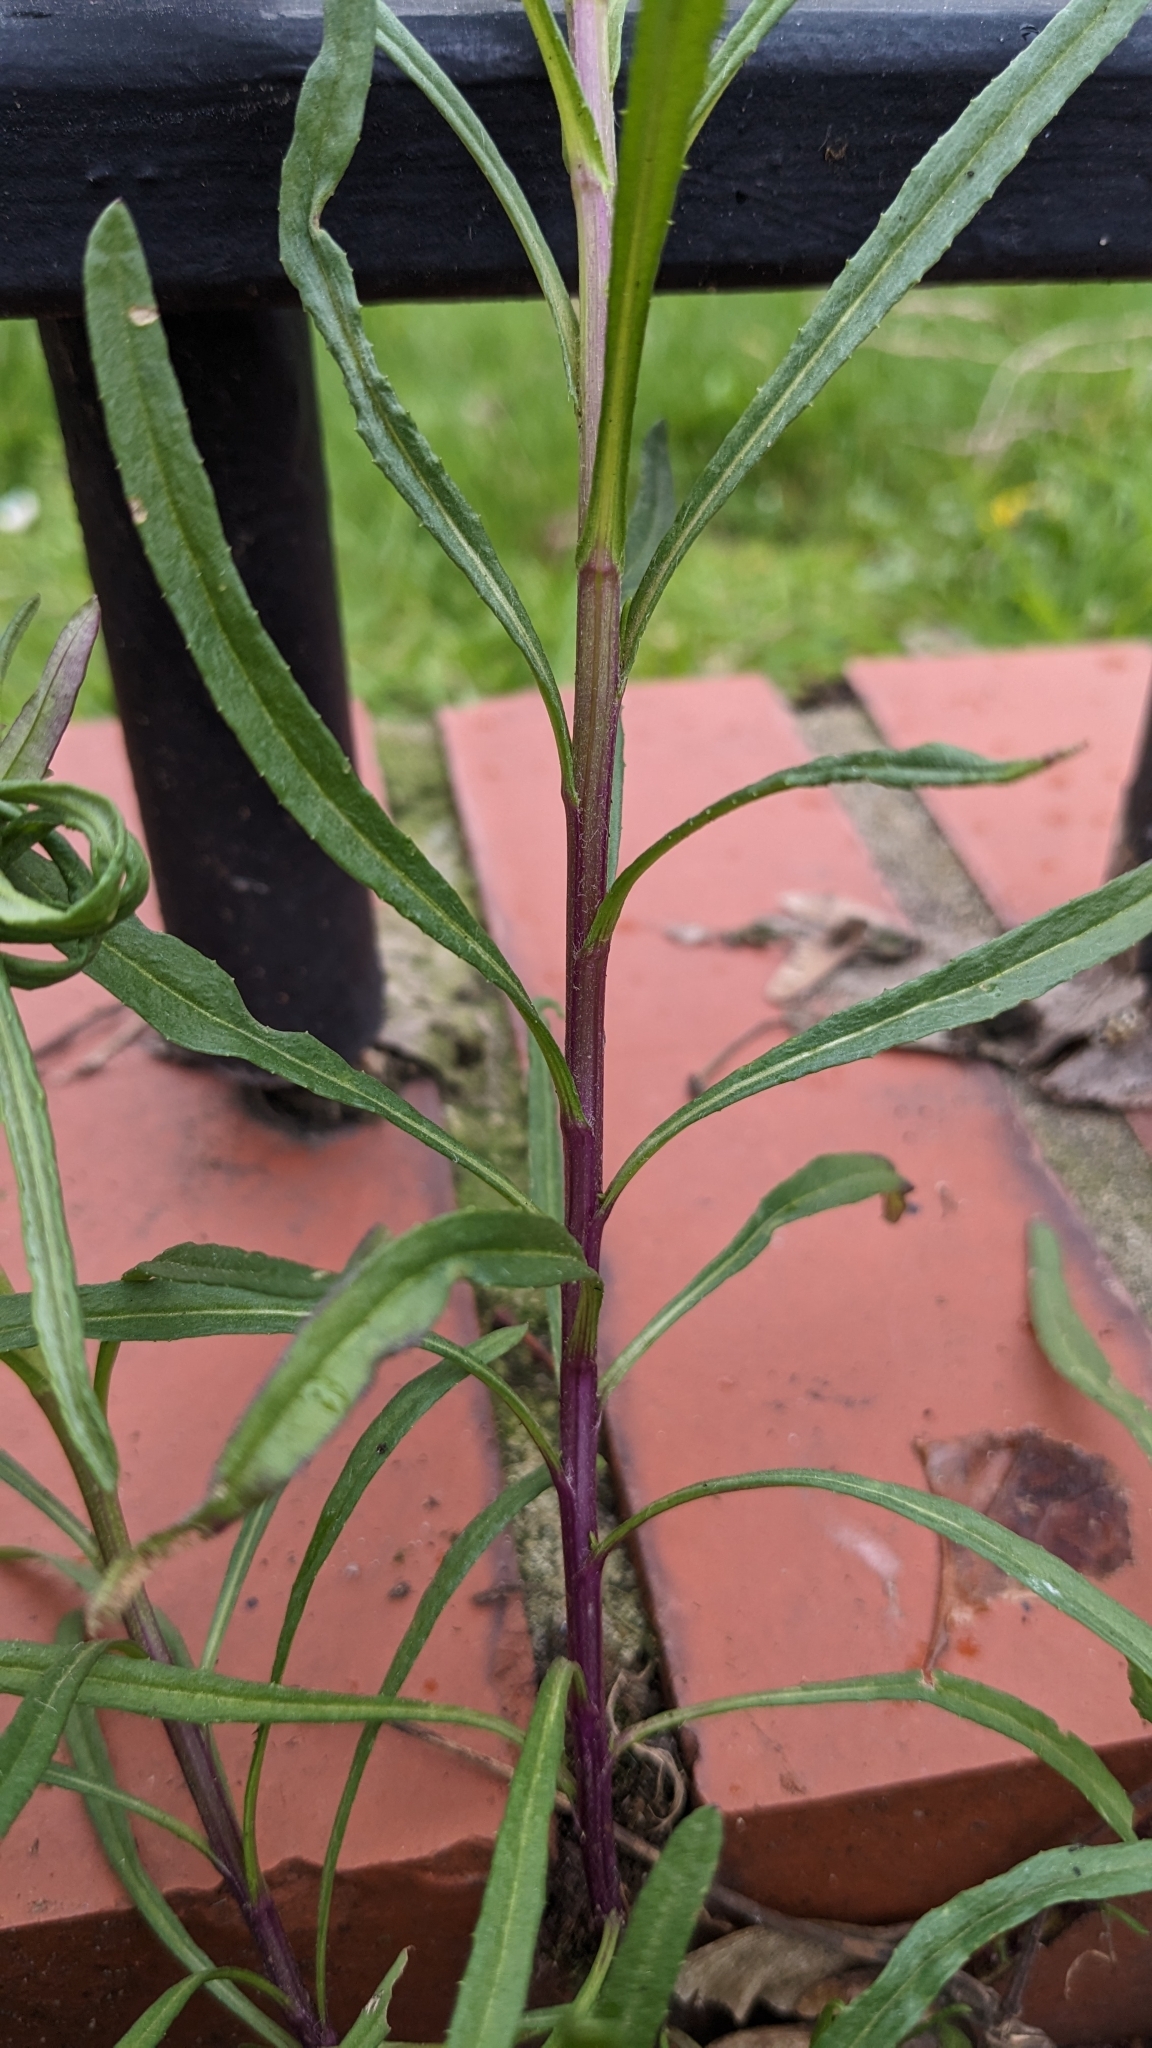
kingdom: Plantae
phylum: Tracheophyta
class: Magnoliopsida
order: Asterales
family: Asteraceae
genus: Senecio
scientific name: Senecio inaequidens
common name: Narrow-leaved ragwort
